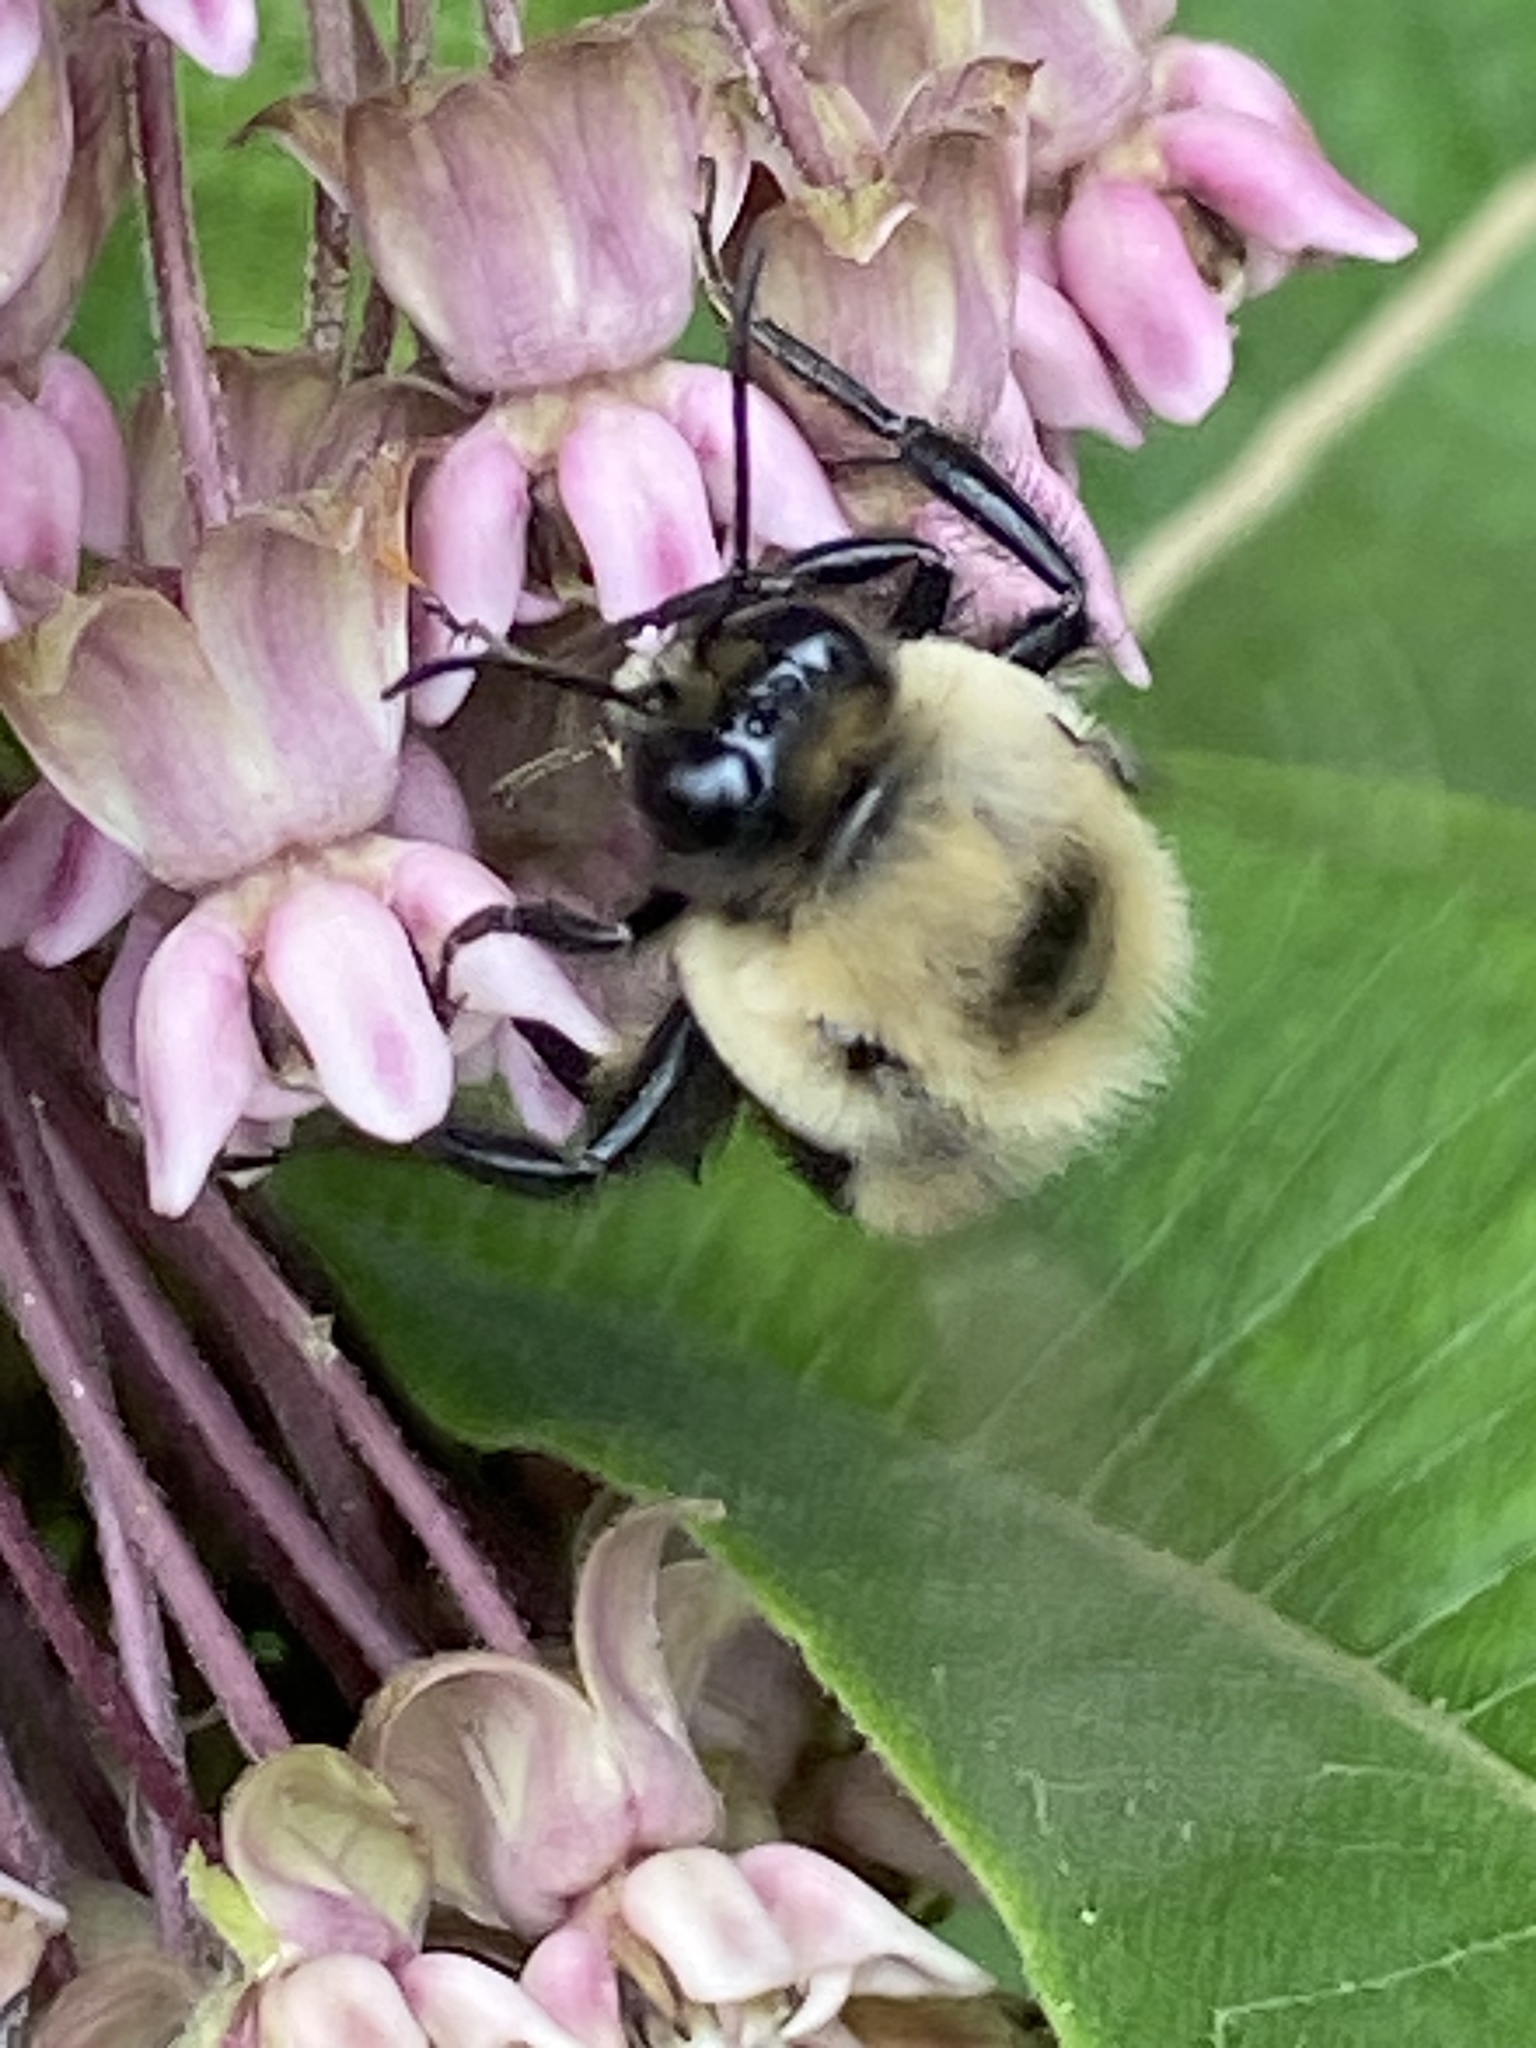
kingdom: Animalia
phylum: Arthropoda
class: Insecta
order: Hymenoptera
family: Apidae
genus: Bombus
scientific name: Bombus griseocollis
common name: Brown-belted bumble bee
